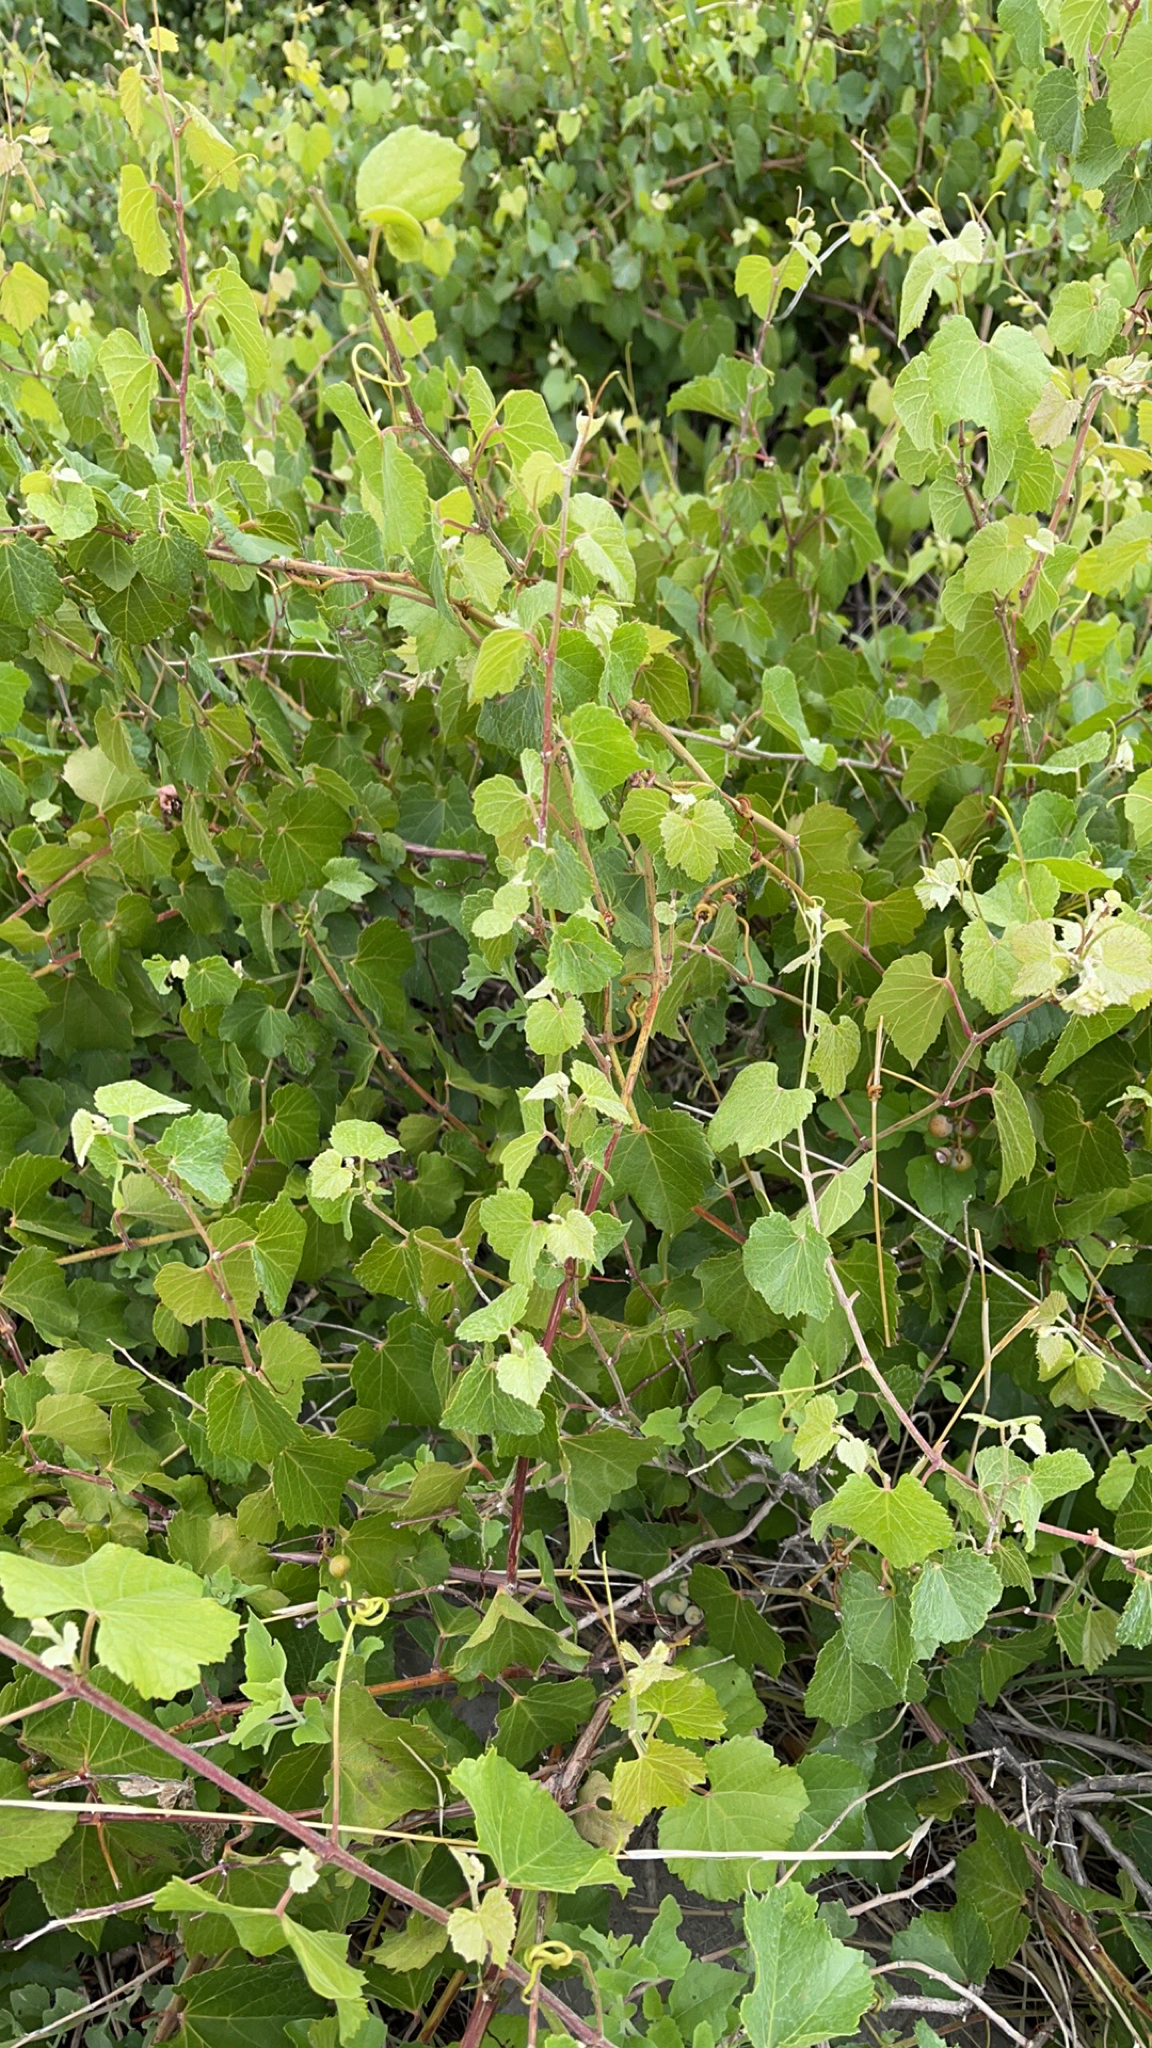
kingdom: Plantae
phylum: Tracheophyta
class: Magnoliopsida
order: Vitales
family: Vitaceae
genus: Vitis
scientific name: Vitis arizonica
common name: Canyon grape
